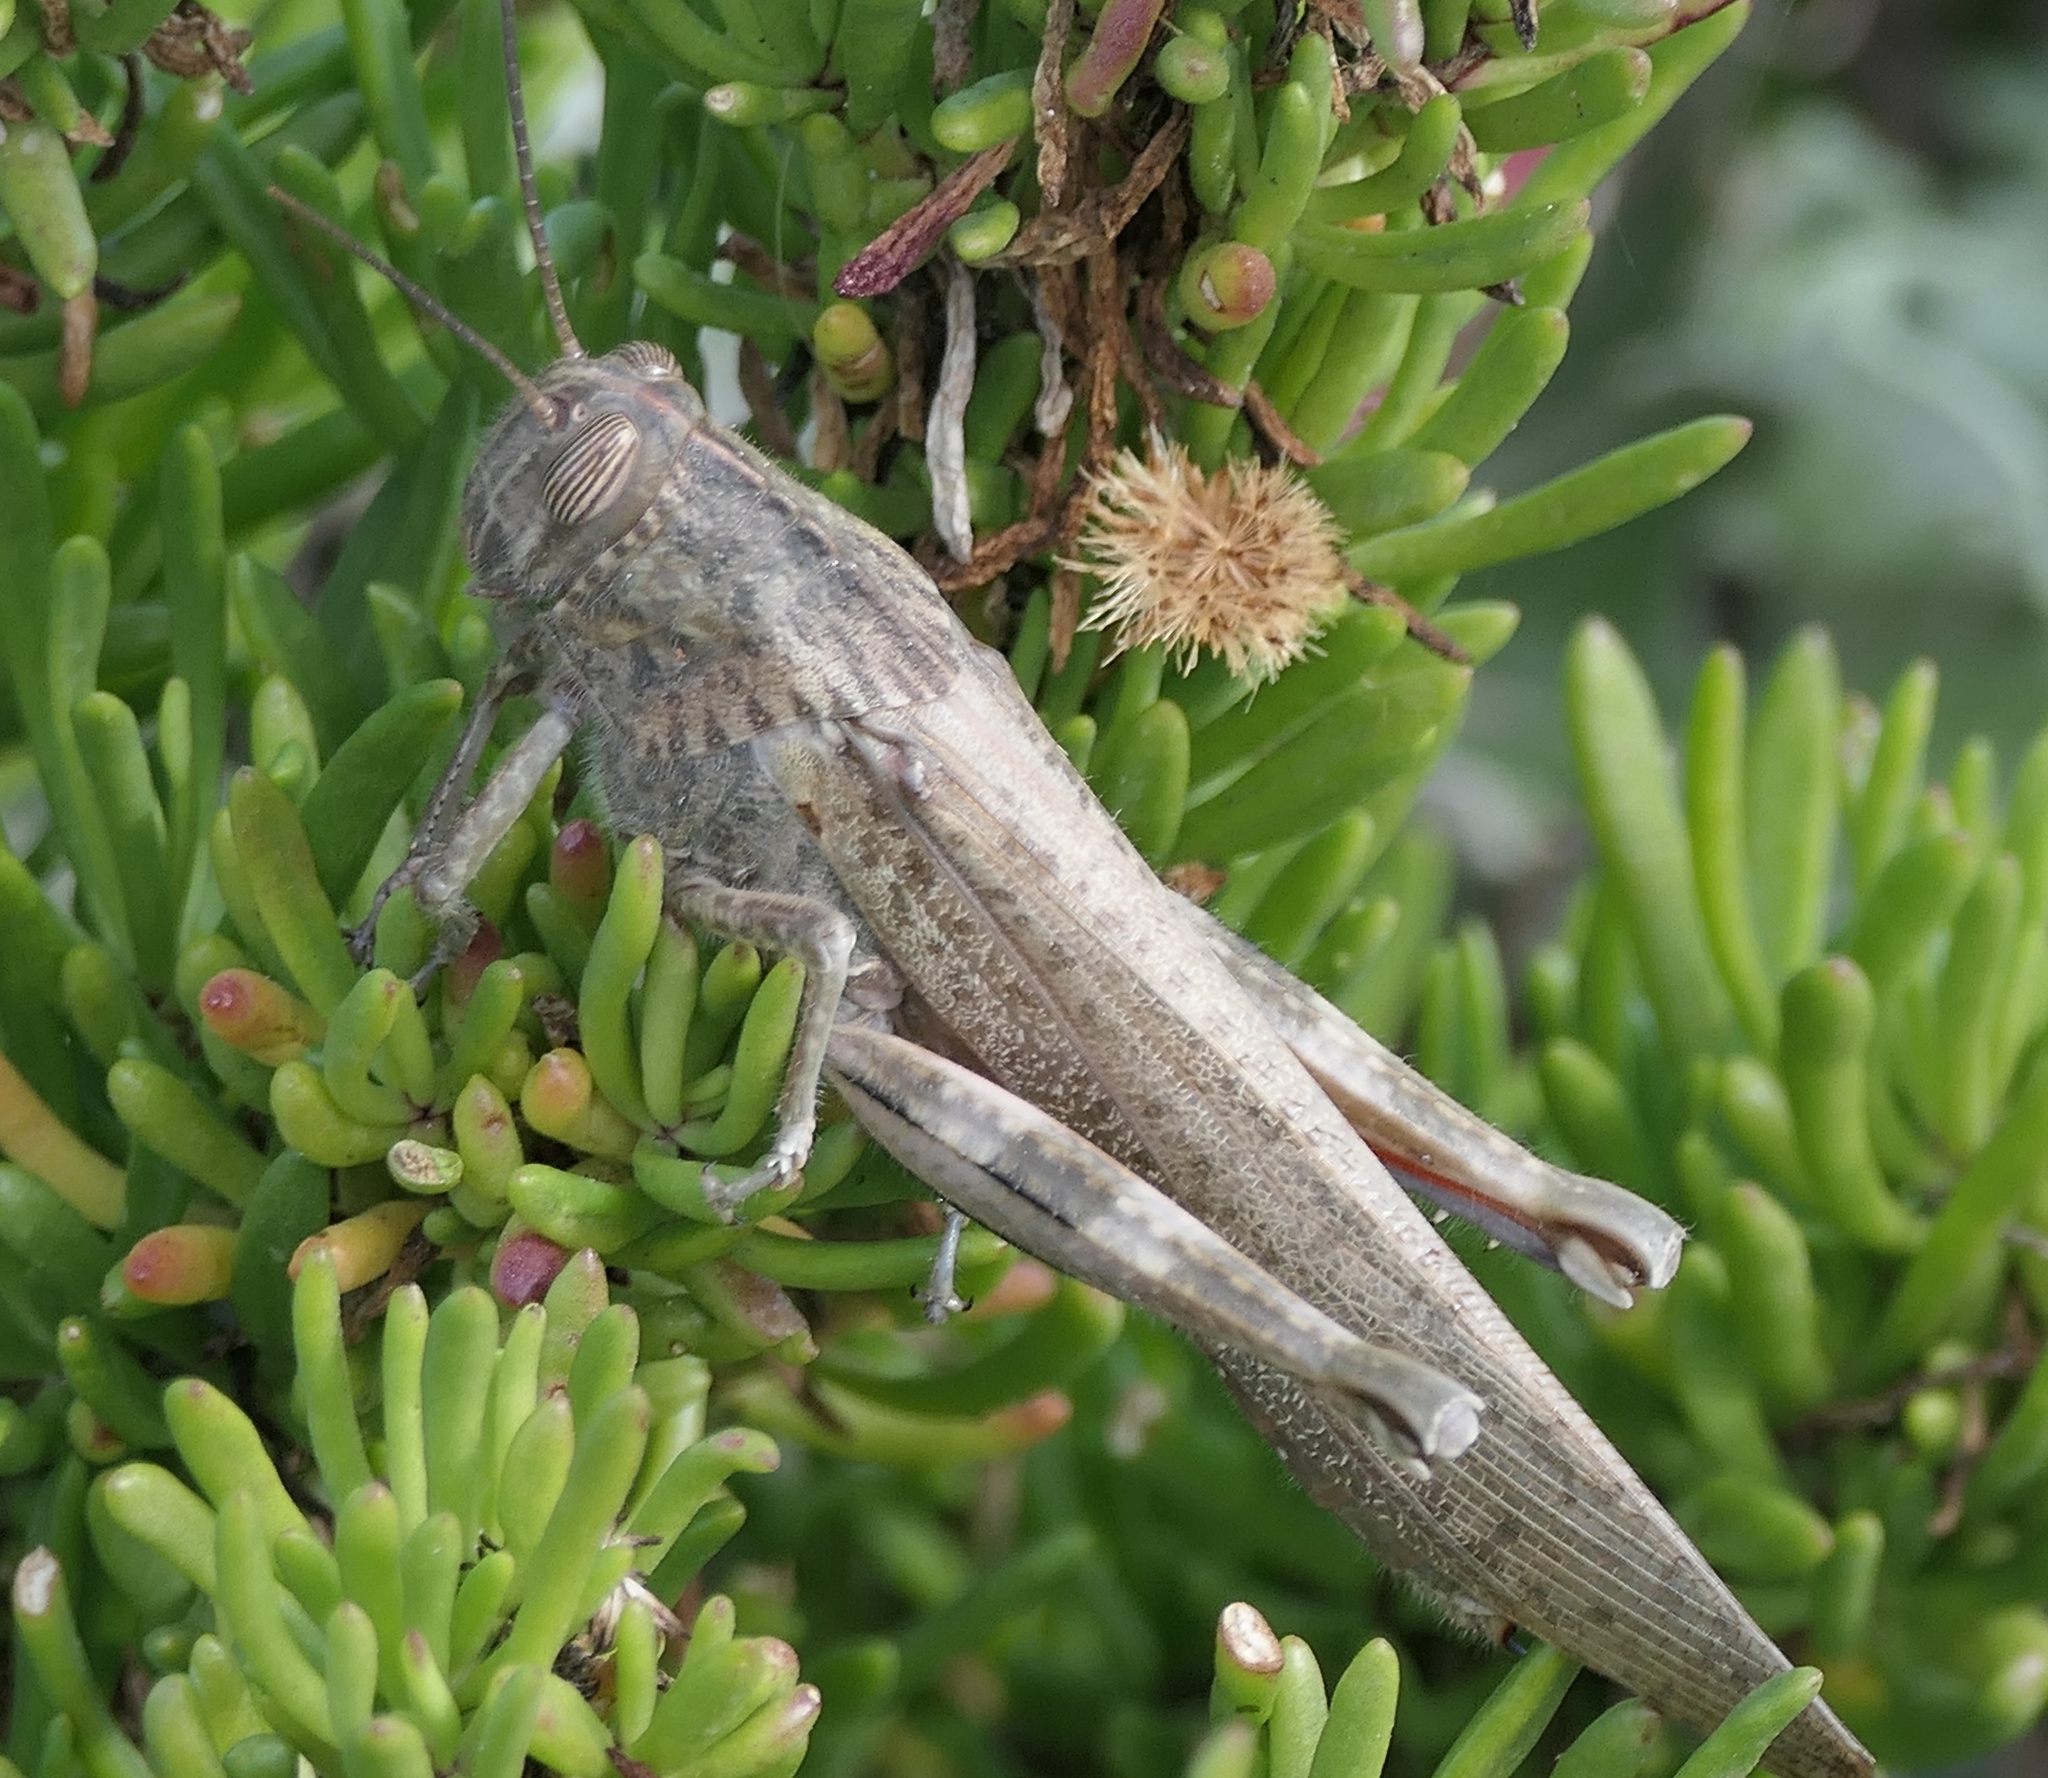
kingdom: Animalia
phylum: Arthropoda
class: Insecta
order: Orthoptera
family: Acrididae
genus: Anacridium
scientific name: Anacridium aegyptium
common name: Egyptian grasshopper
